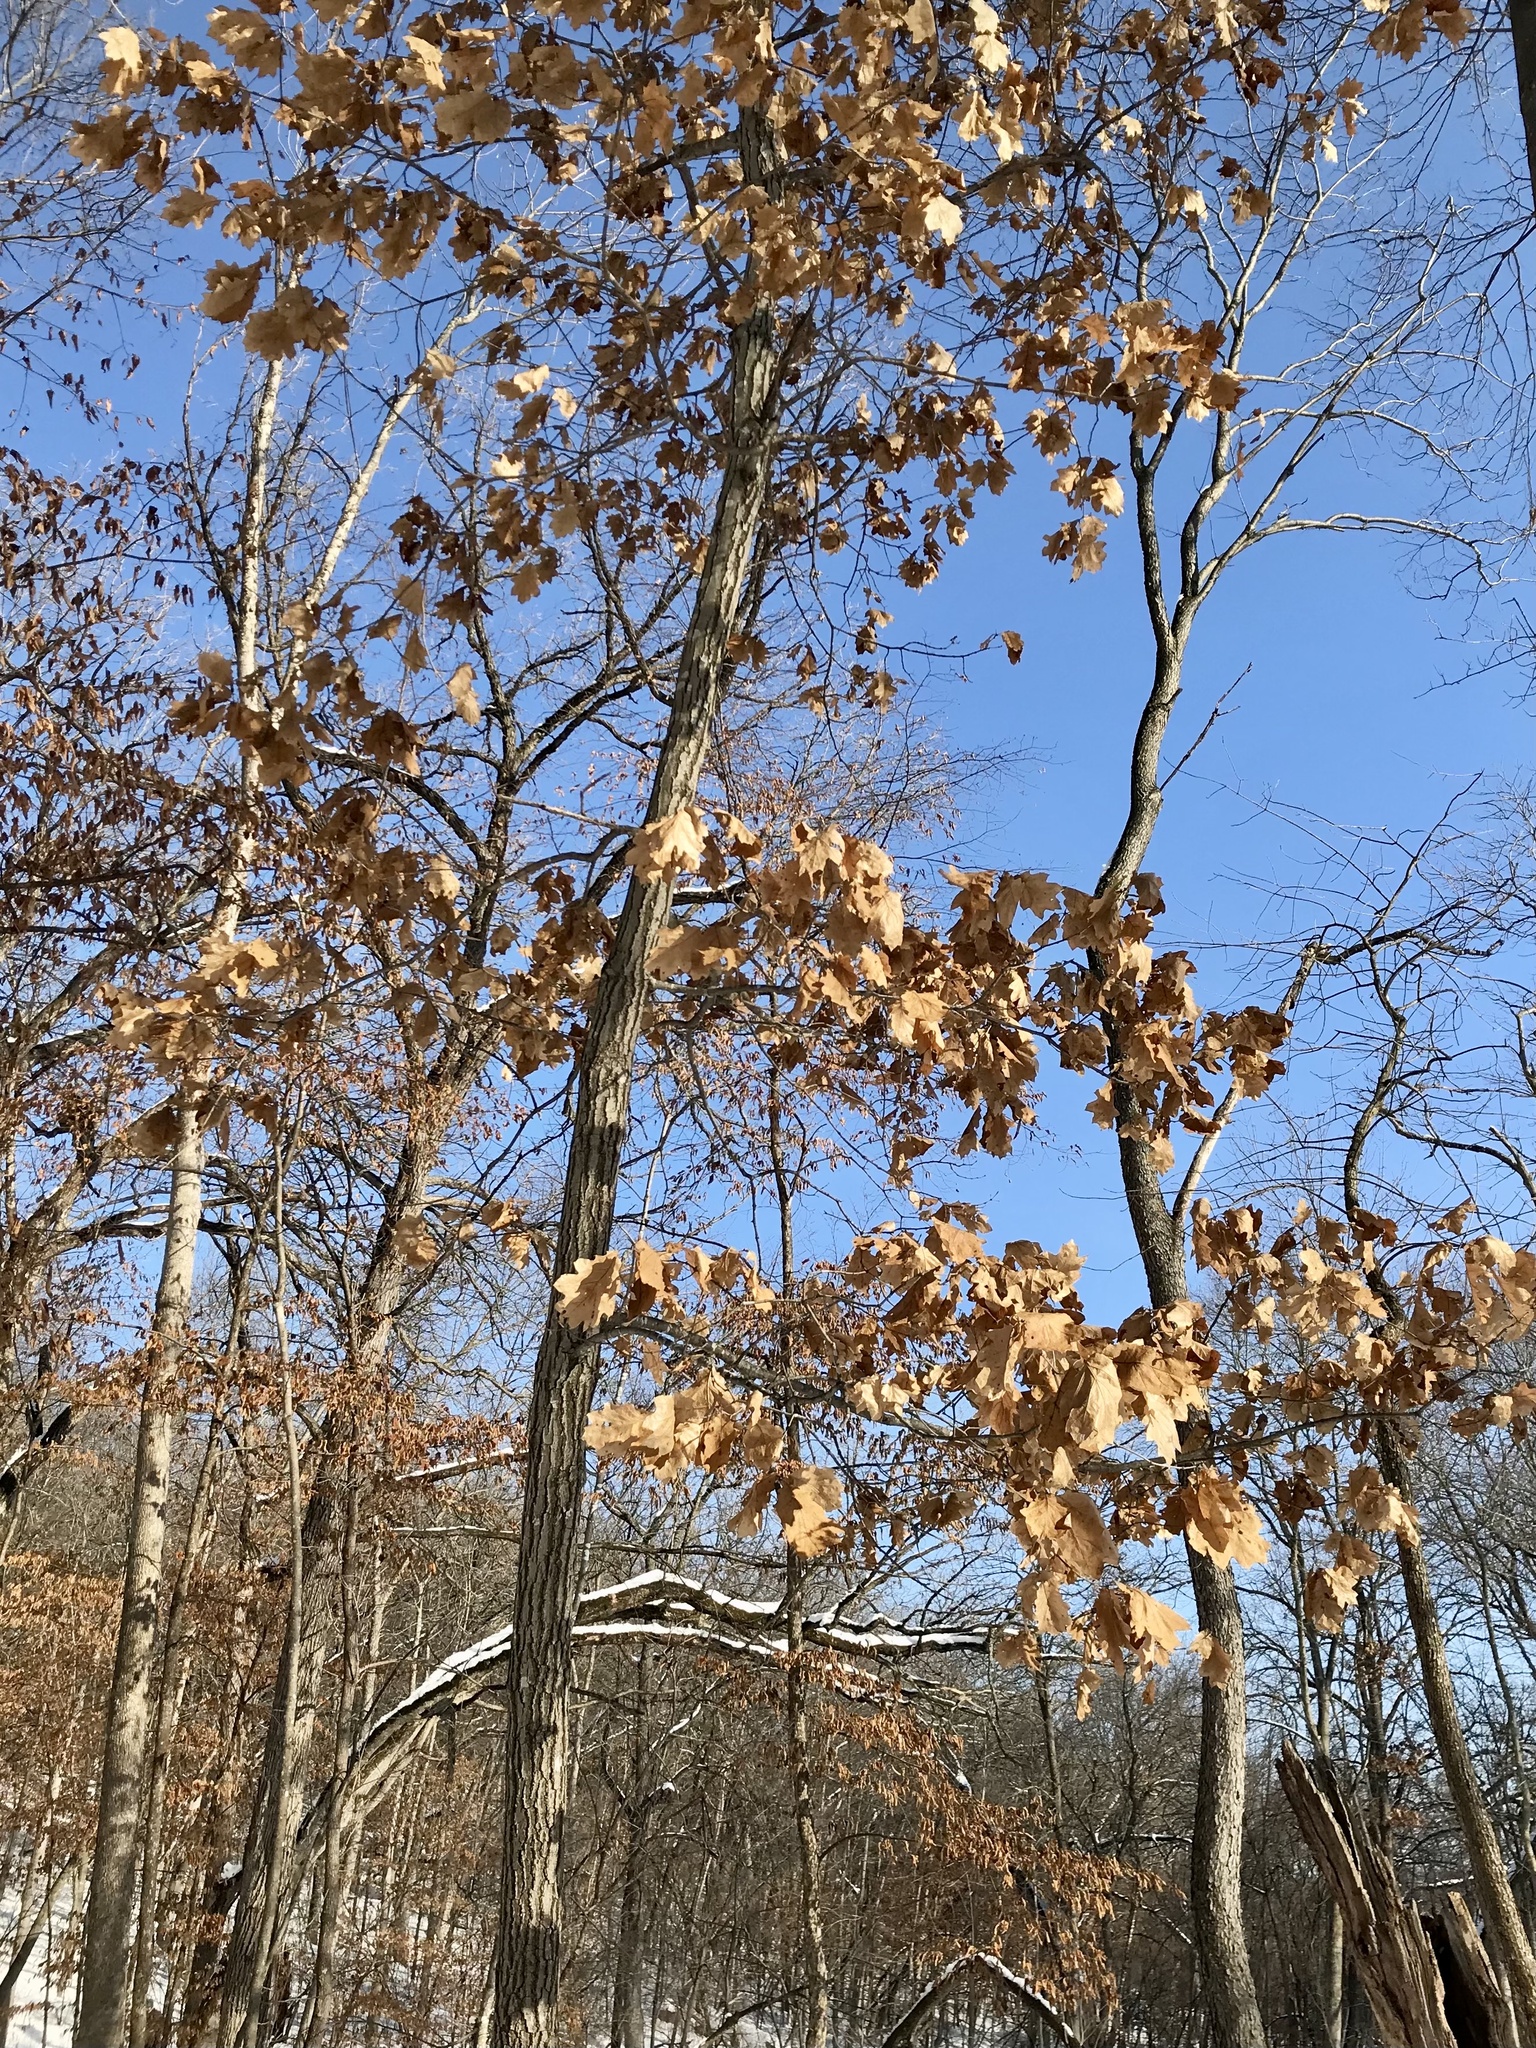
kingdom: Plantae
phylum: Tracheophyta
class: Magnoliopsida
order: Fagales
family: Fagaceae
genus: Quercus
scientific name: Quercus rubra
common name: Red oak
